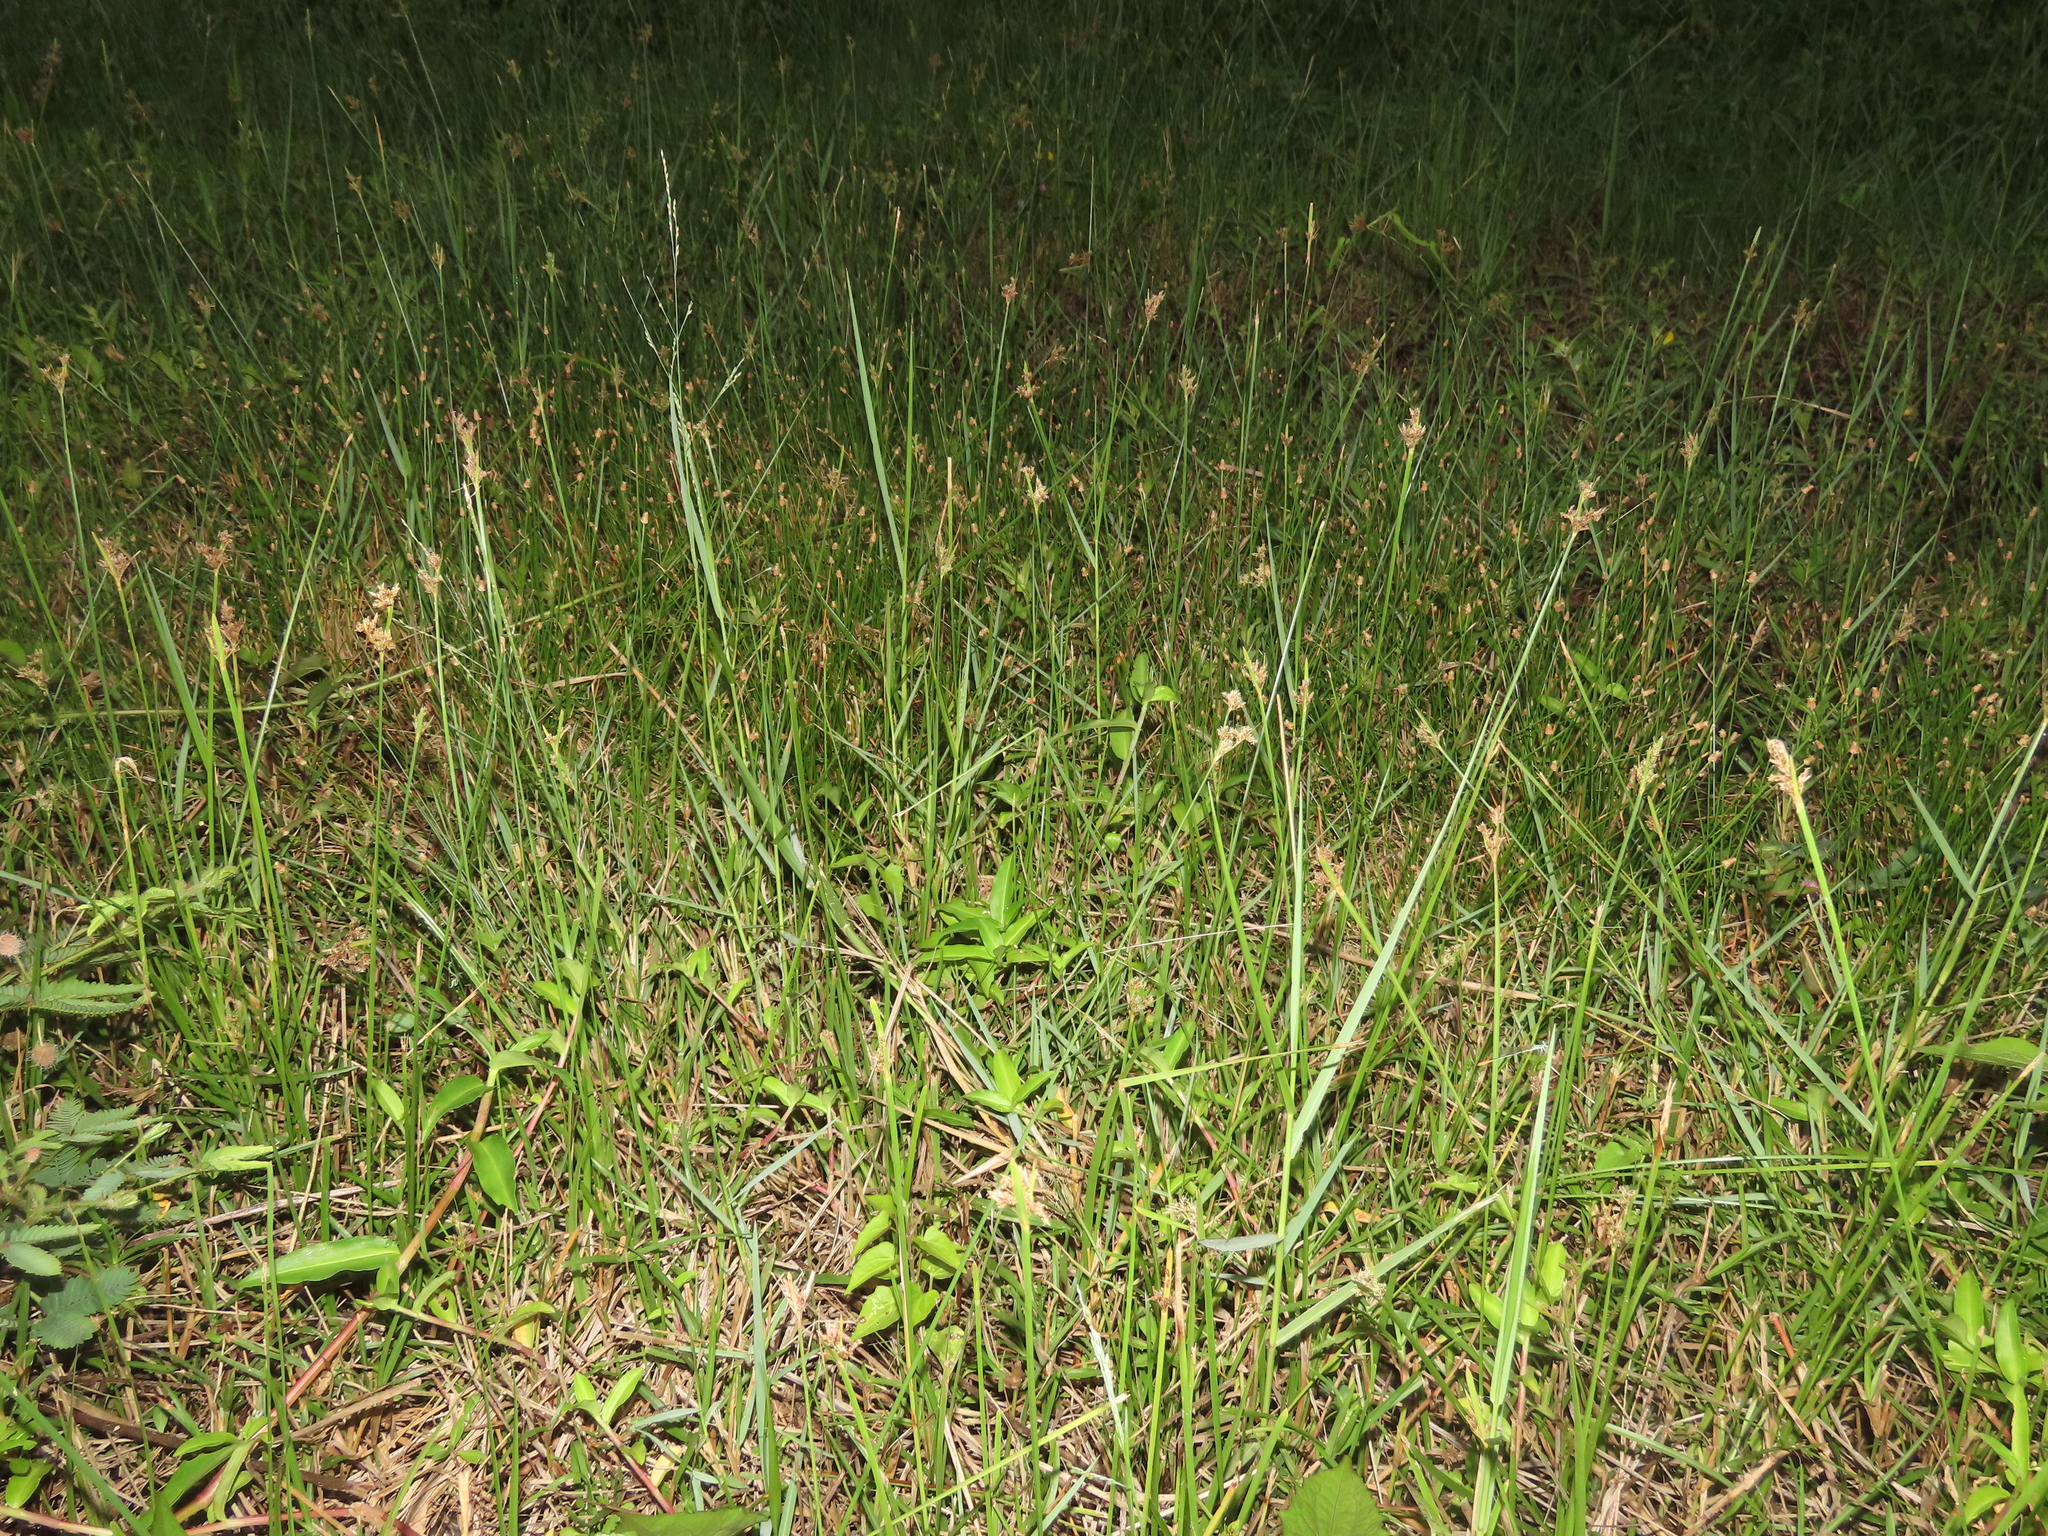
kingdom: Plantae
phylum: Tracheophyta
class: Liliopsida
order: Poales
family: Cyperaceae
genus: Fimbristylis
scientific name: Fimbristylis microcarya
